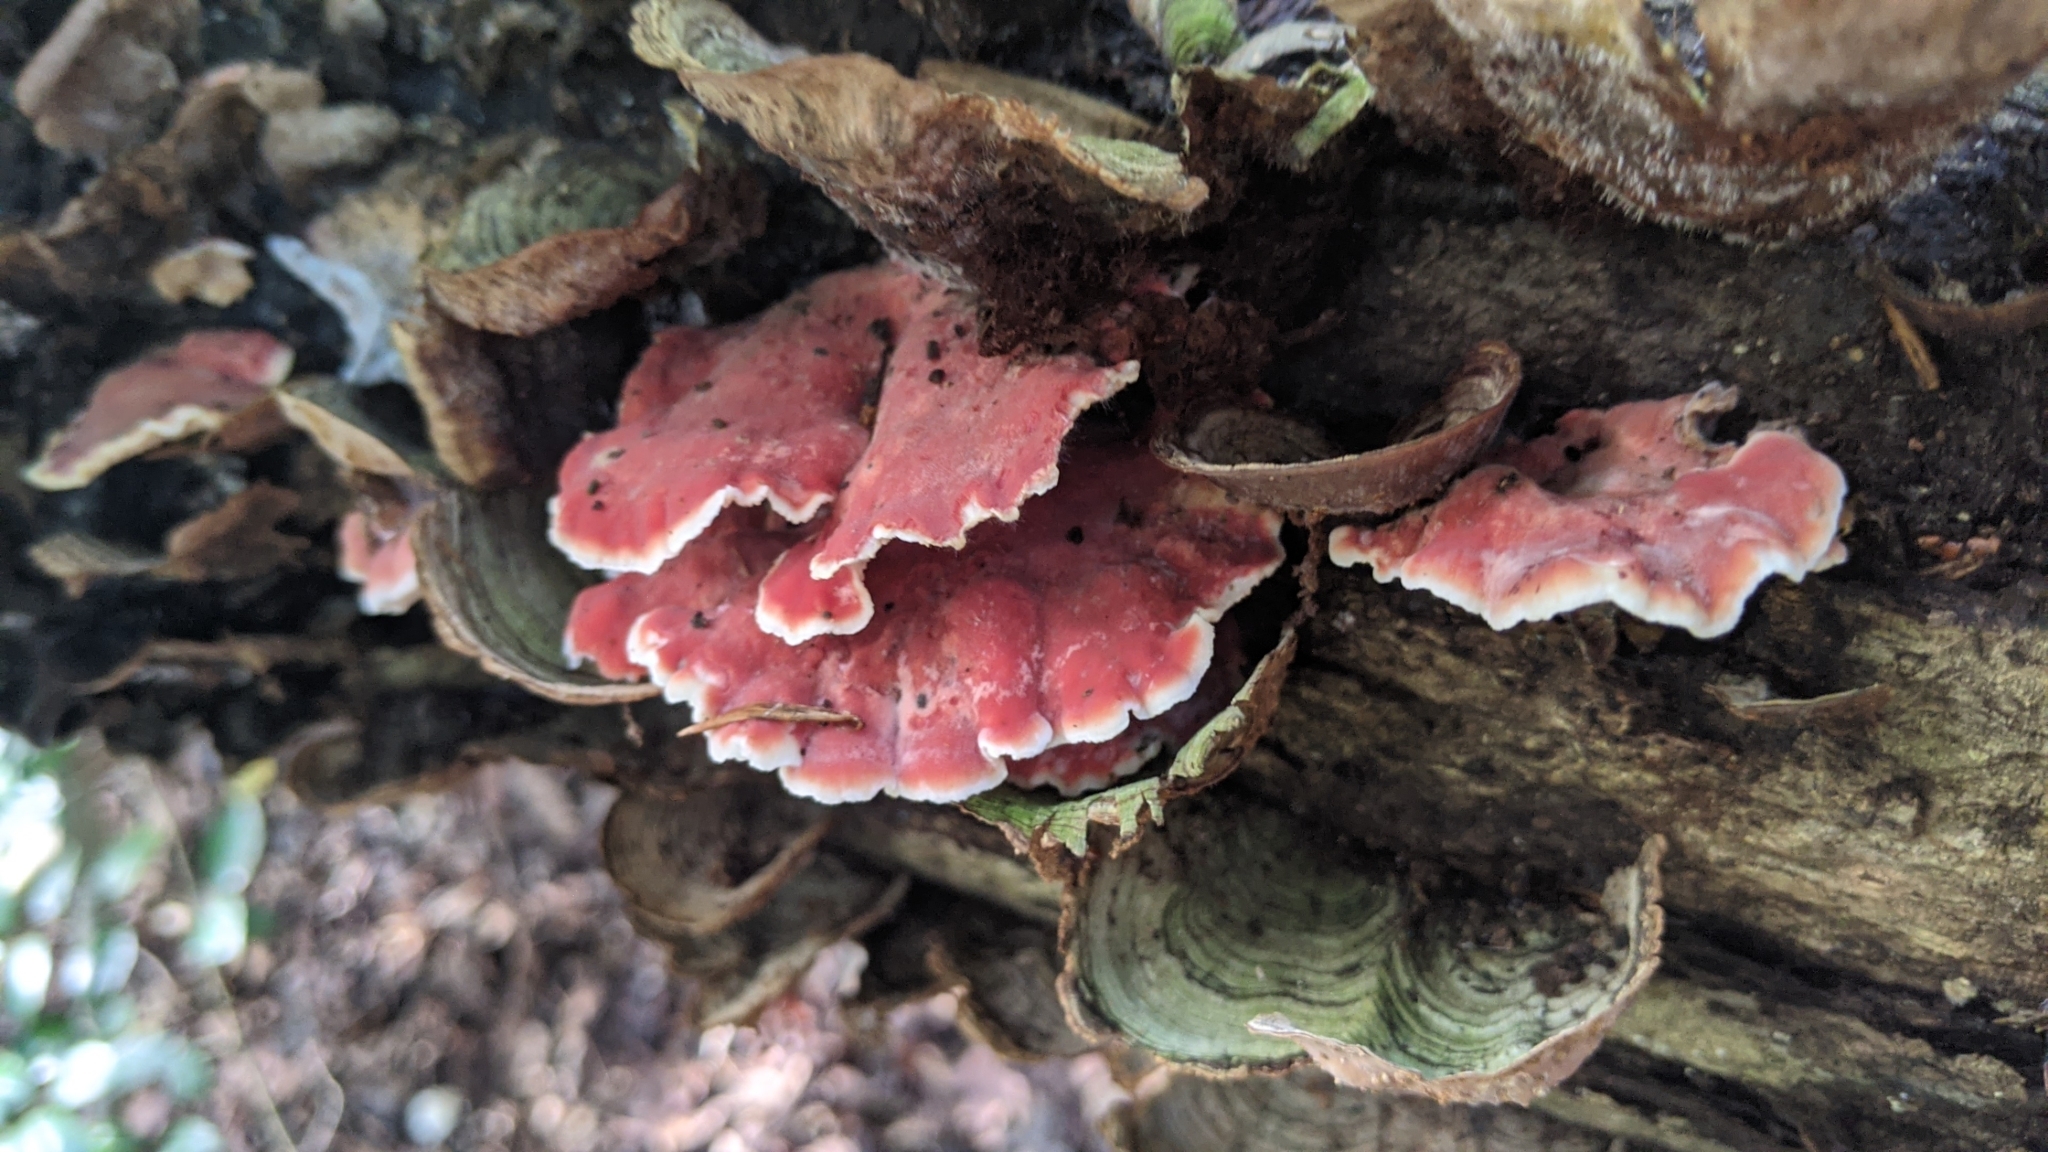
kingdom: Fungi
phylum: Basidiomycota
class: Agaricomycetes
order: Polyporales
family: Irpicaceae
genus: Byssomerulius
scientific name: Byssomerulius incarnatus
